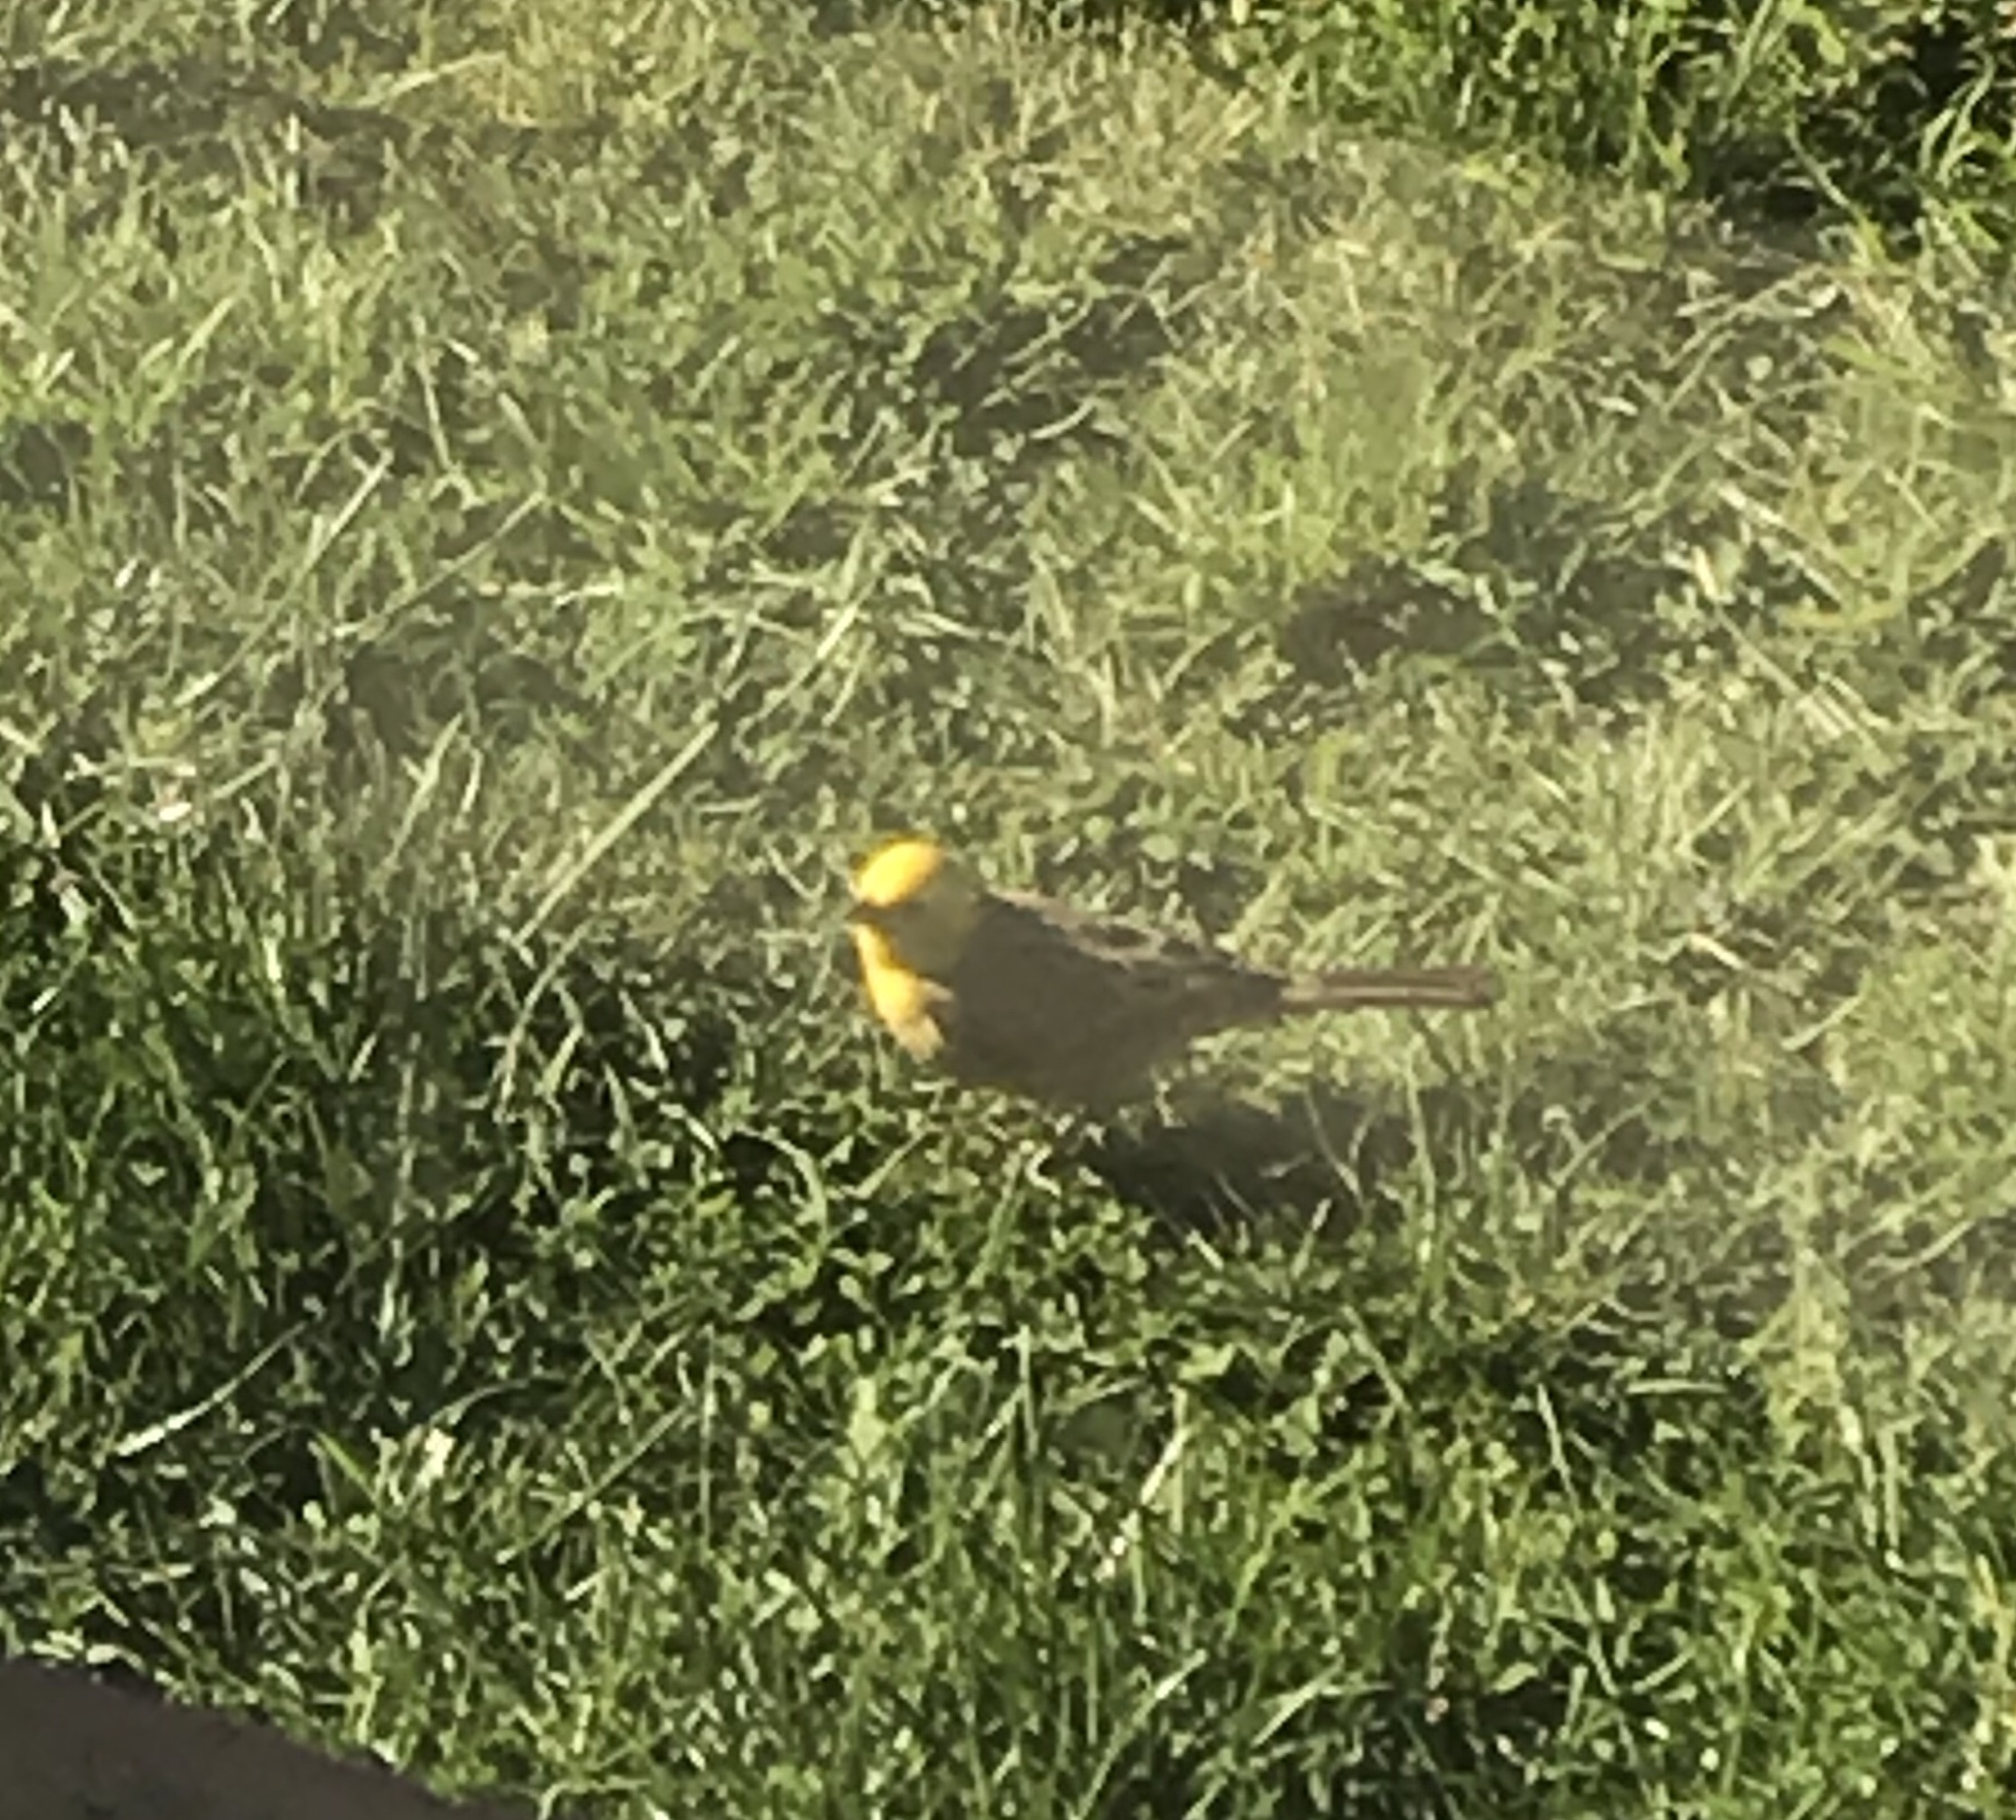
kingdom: Animalia
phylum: Chordata
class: Aves
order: Passeriformes
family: Emberizidae
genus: Emberiza
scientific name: Emberiza citrinella
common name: Yellowhammer
